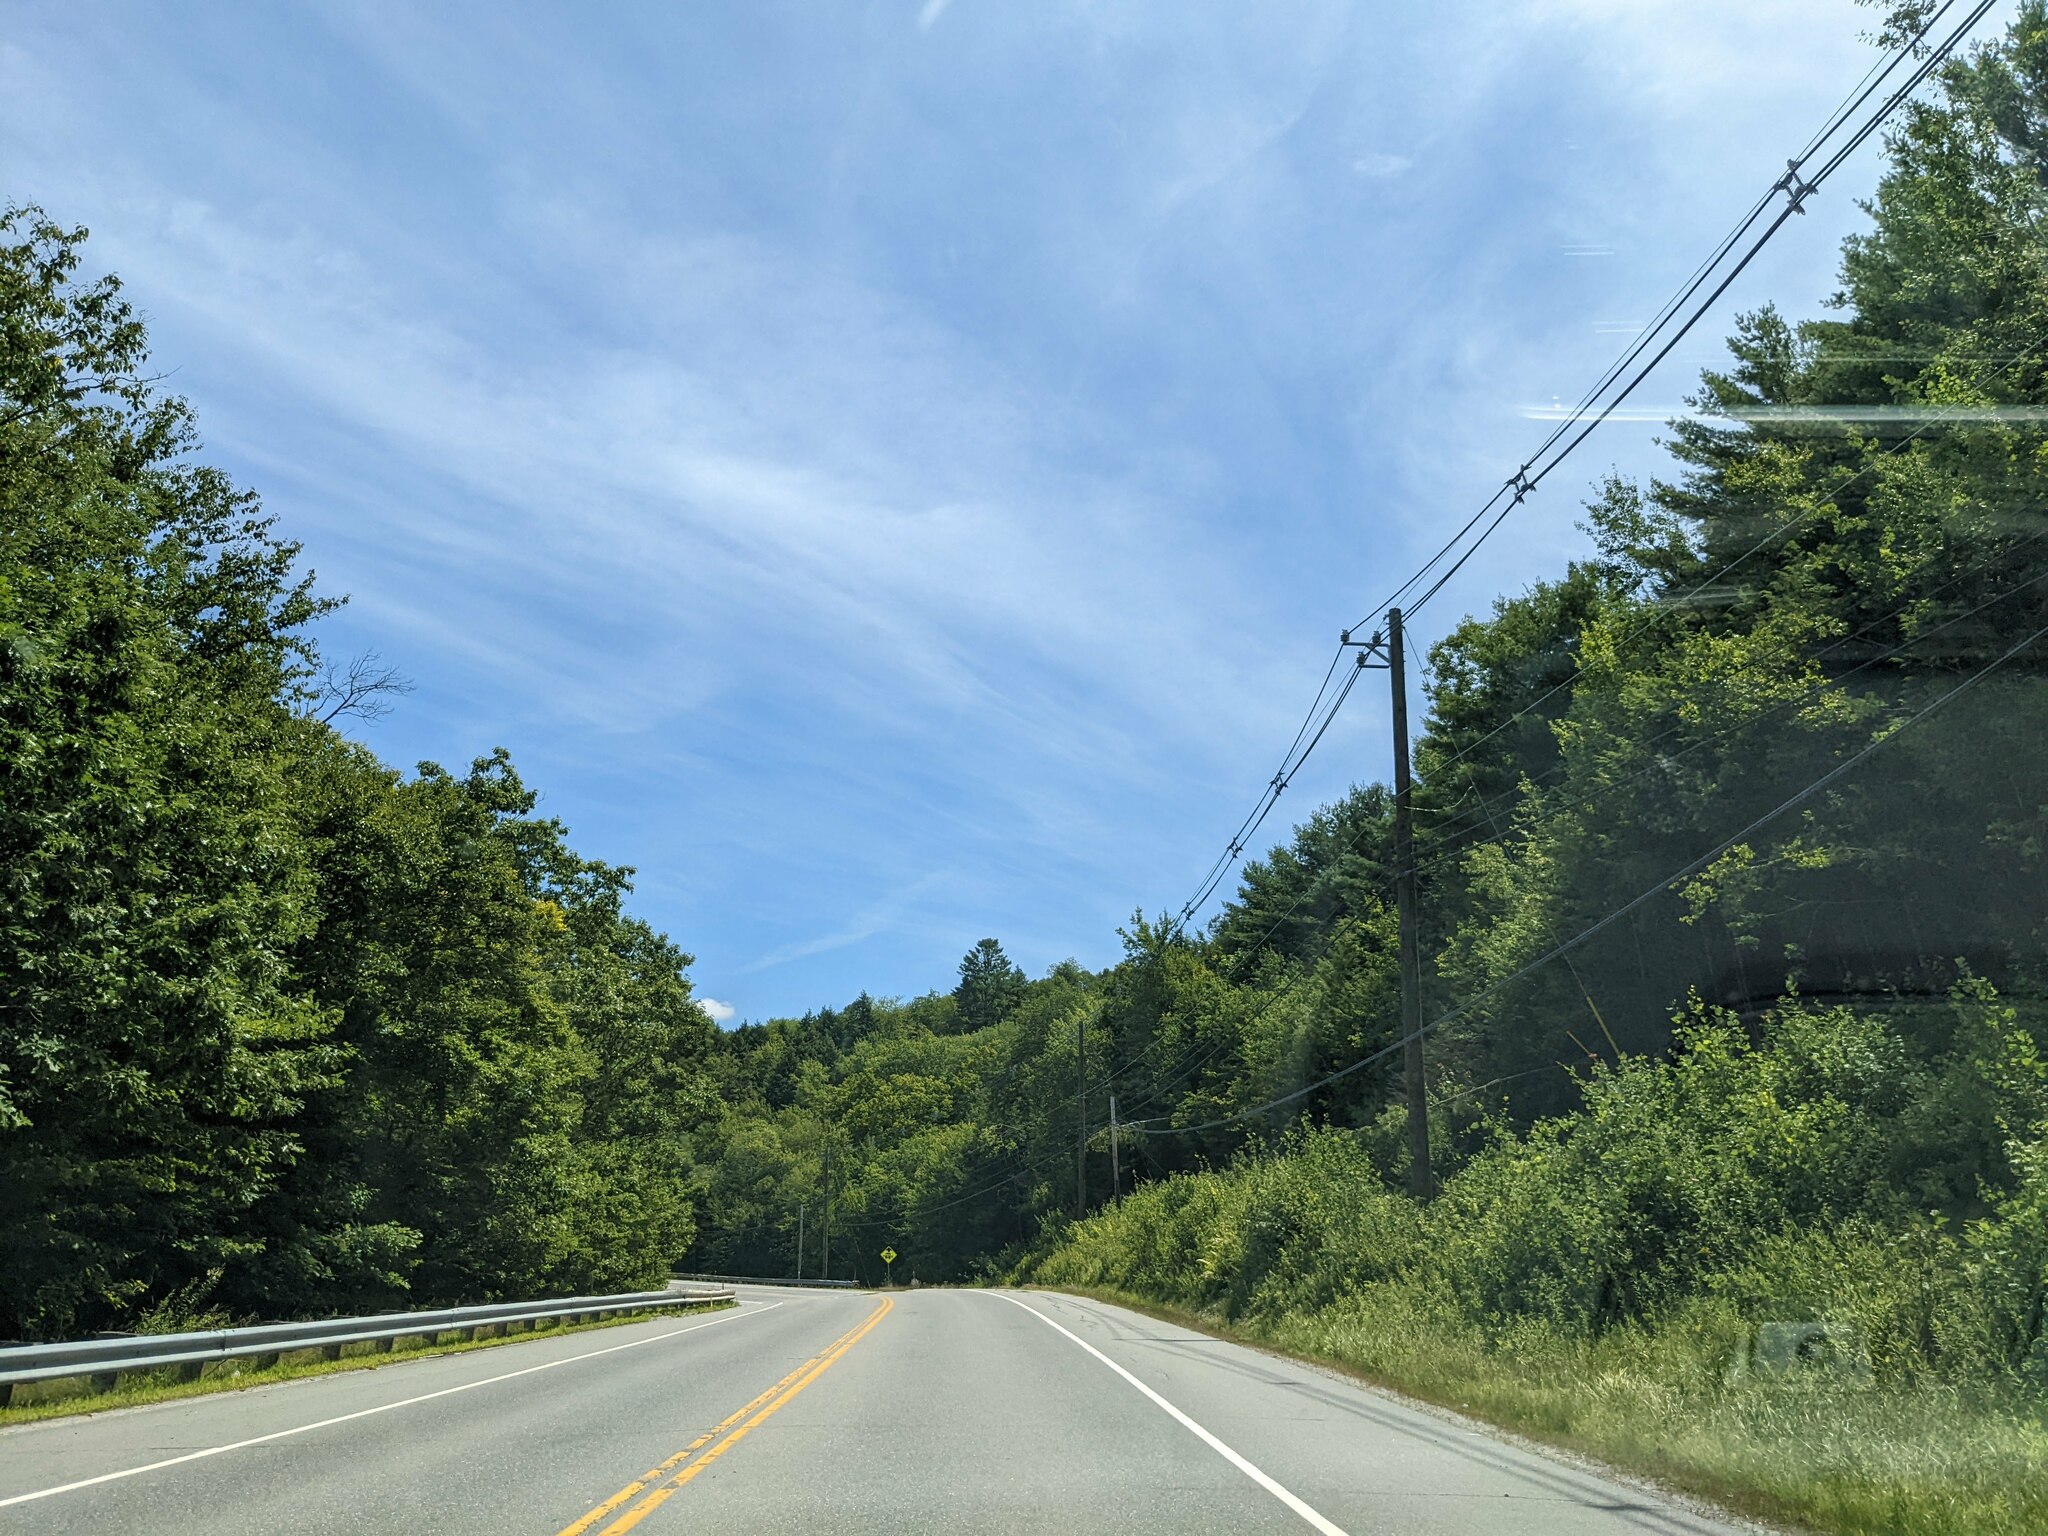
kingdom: Plantae
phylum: Tracheophyta
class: Pinopsida
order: Pinales
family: Pinaceae
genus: Pinus
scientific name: Pinus strobus
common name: Weymouth pine
